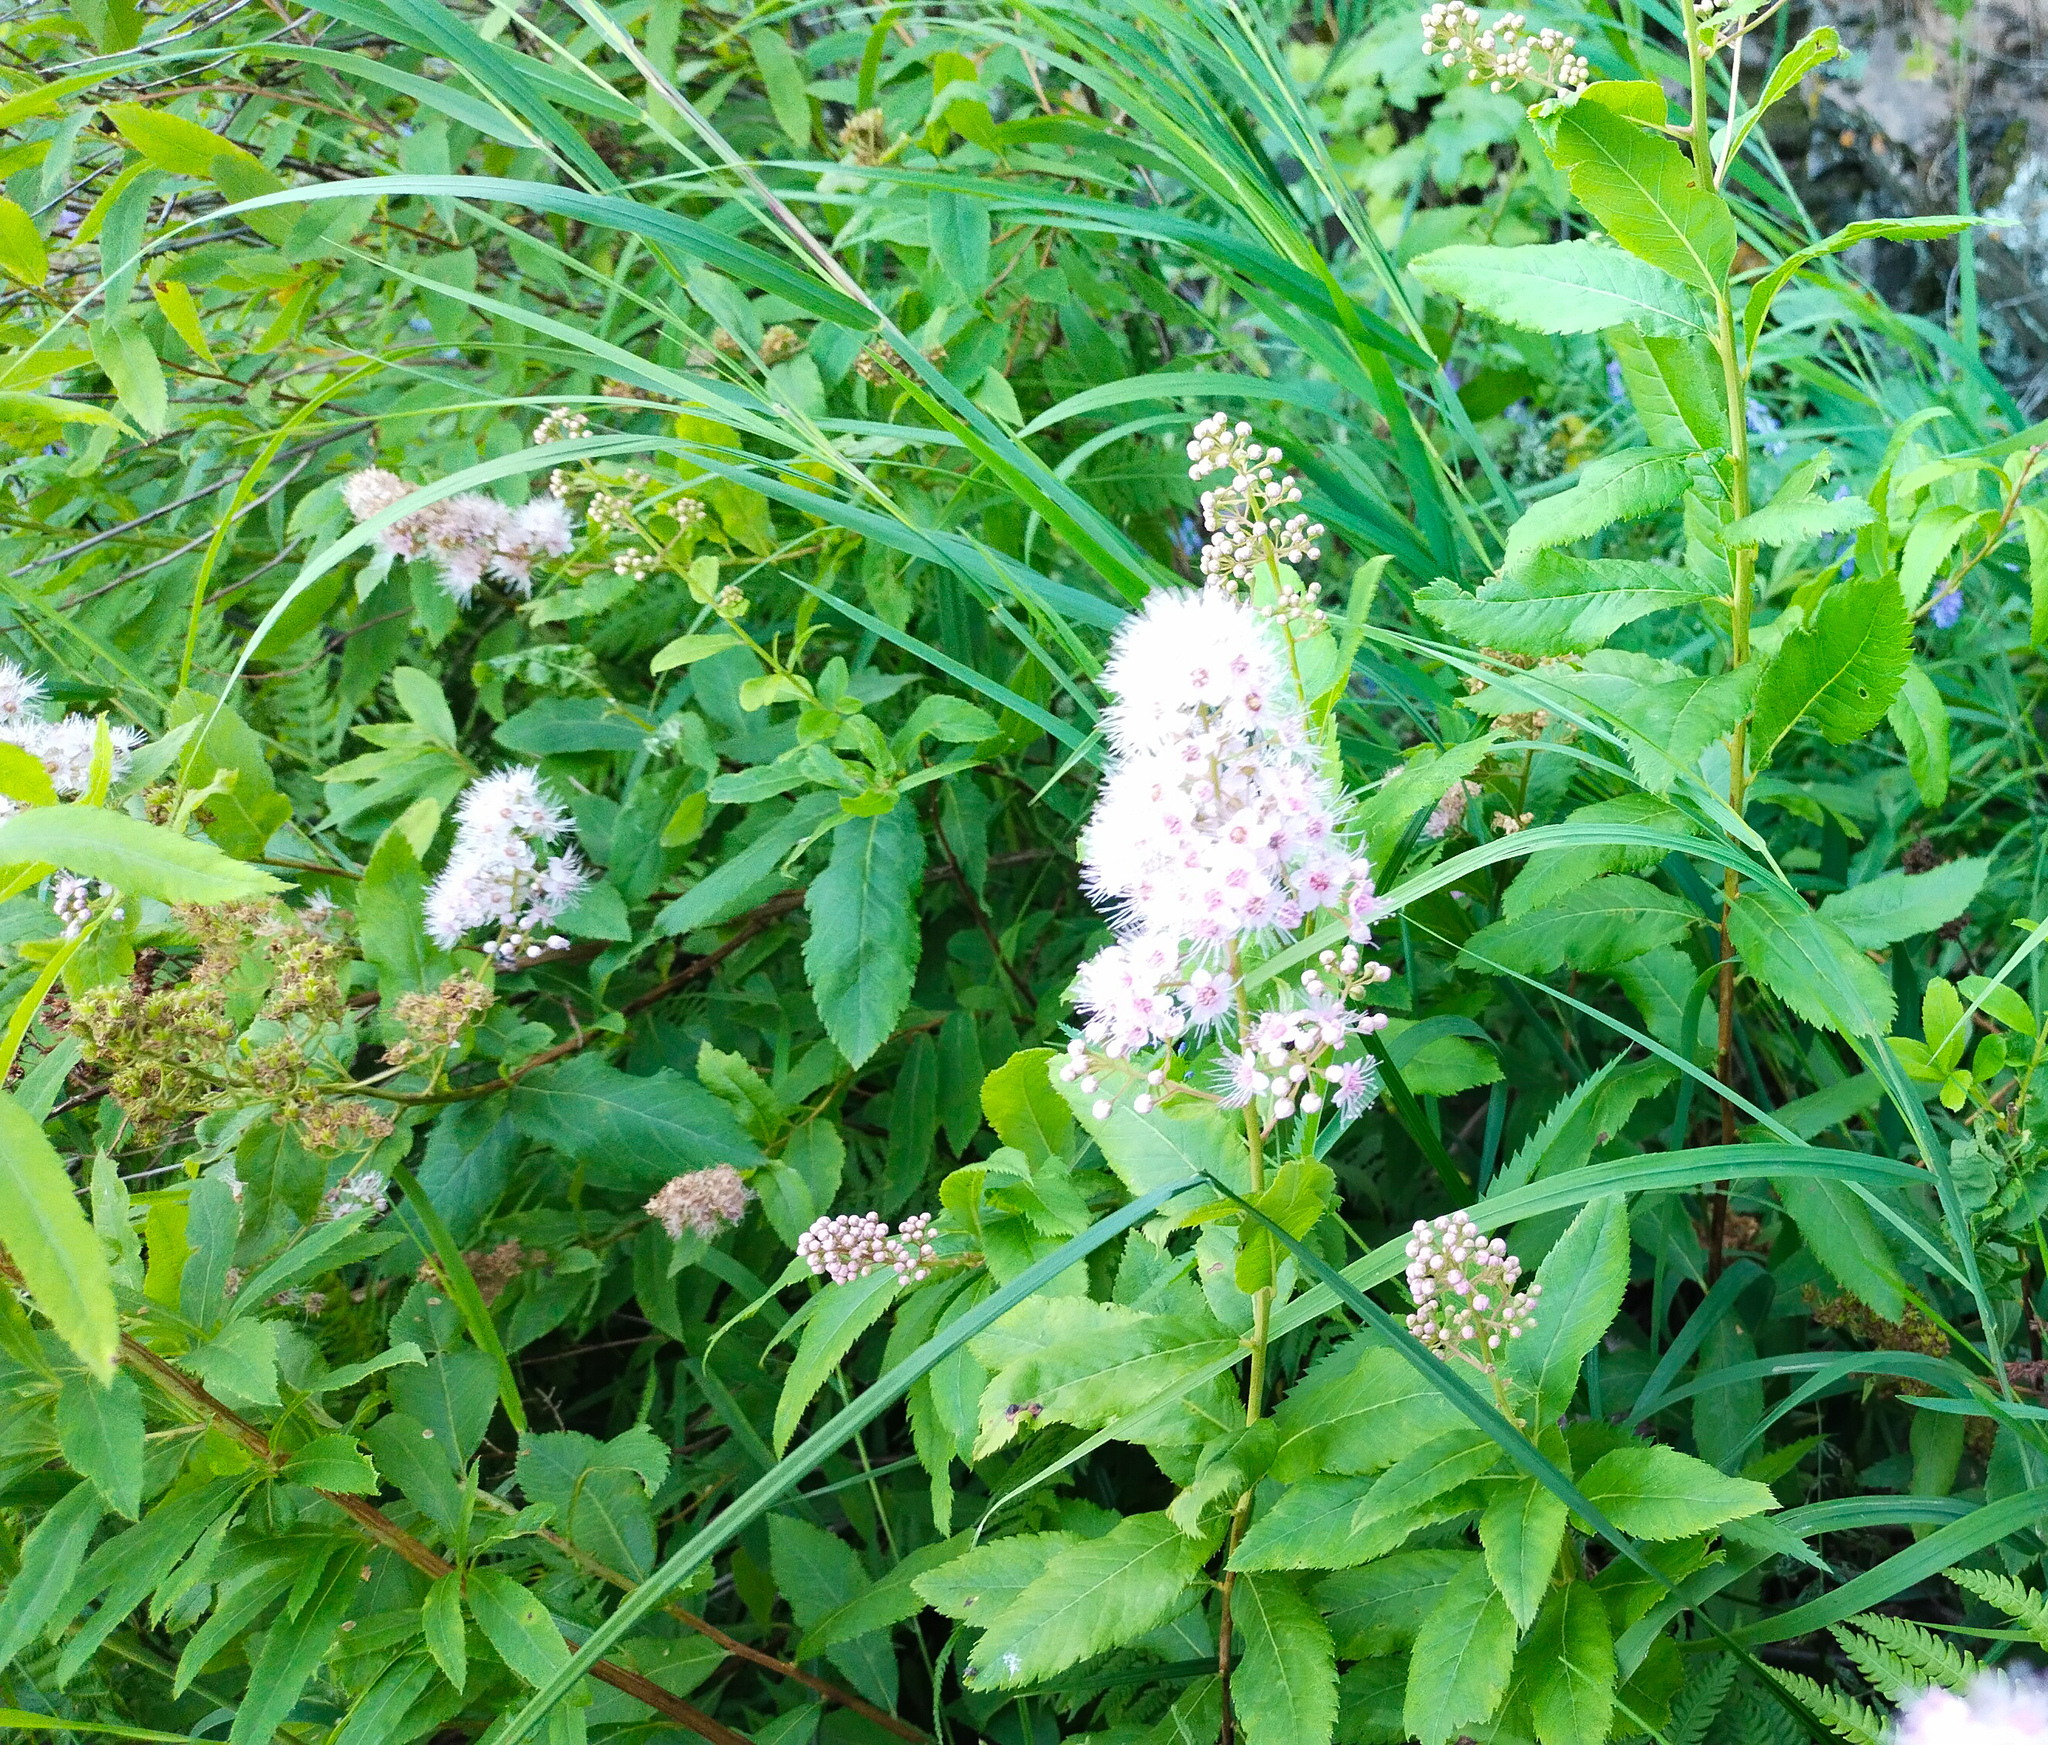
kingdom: Plantae
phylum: Tracheophyta
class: Magnoliopsida
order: Rosales
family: Rosaceae
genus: Spiraea
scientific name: Spiraea salicifolia
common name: Bridewort
